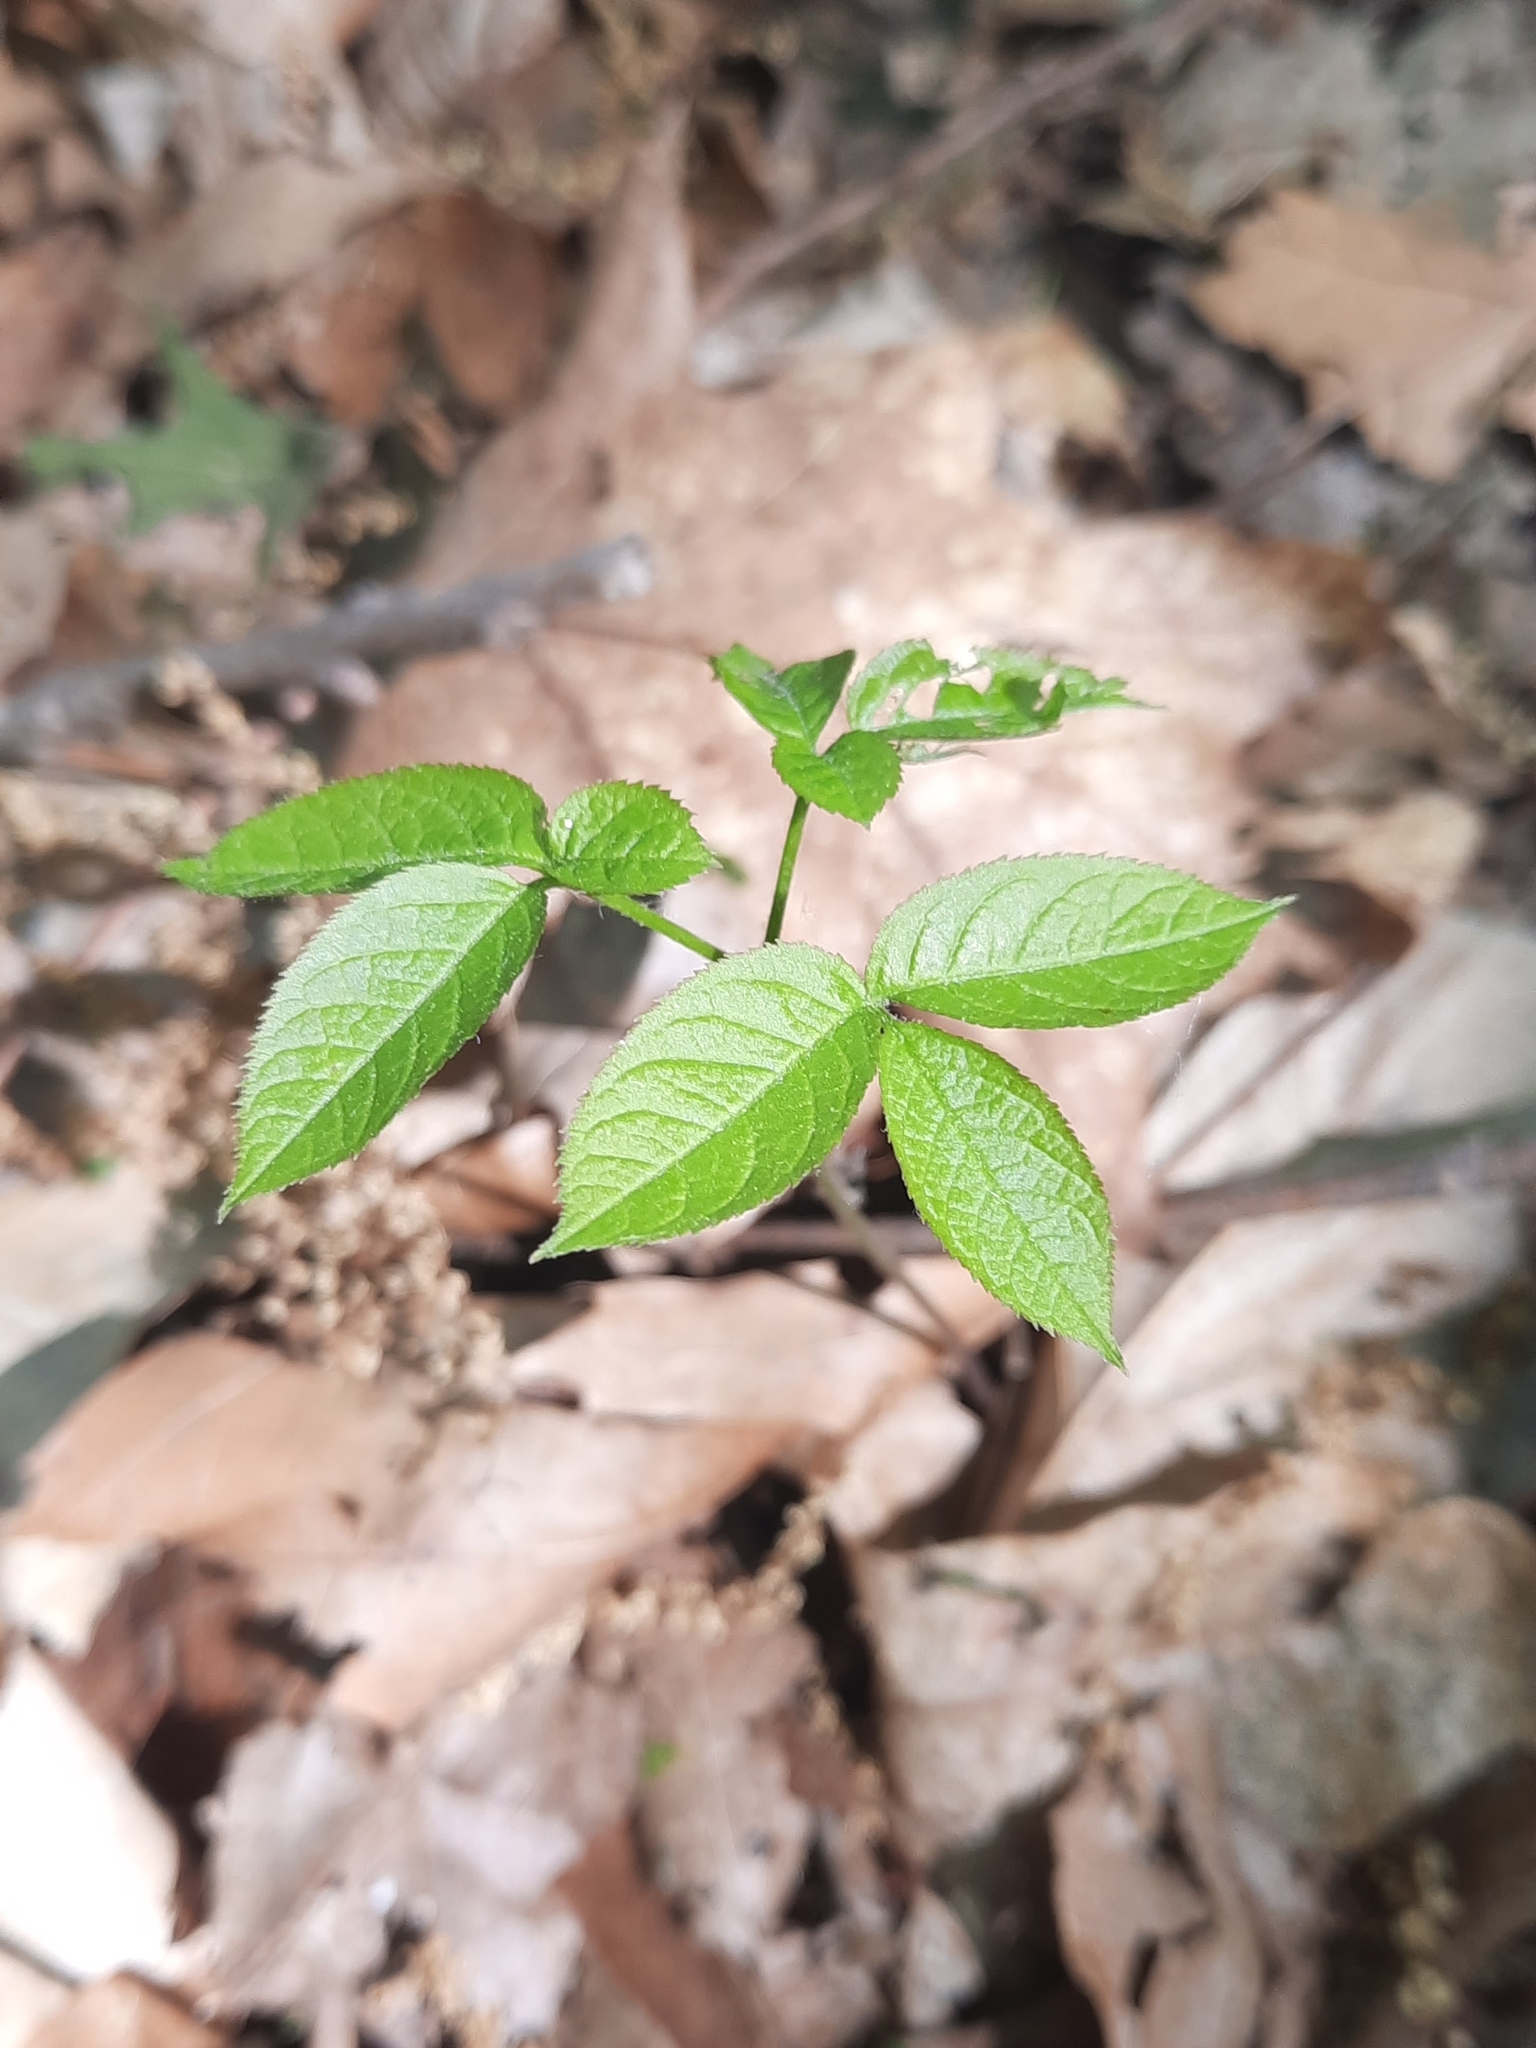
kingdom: Plantae
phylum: Tracheophyta
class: Magnoliopsida
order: Apiales
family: Araliaceae
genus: Aralia
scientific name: Aralia nudicaulis
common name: Wild sarsaparilla
